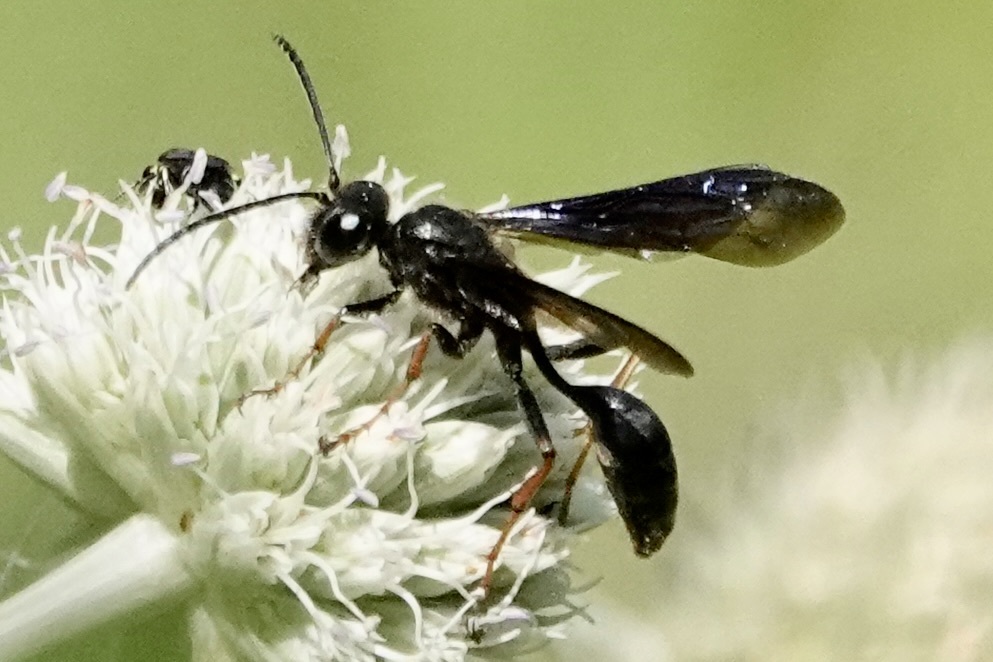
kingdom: Animalia
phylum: Arthropoda
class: Insecta
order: Hymenoptera
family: Sphecidae
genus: Isodontia
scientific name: Isodontia auripes
